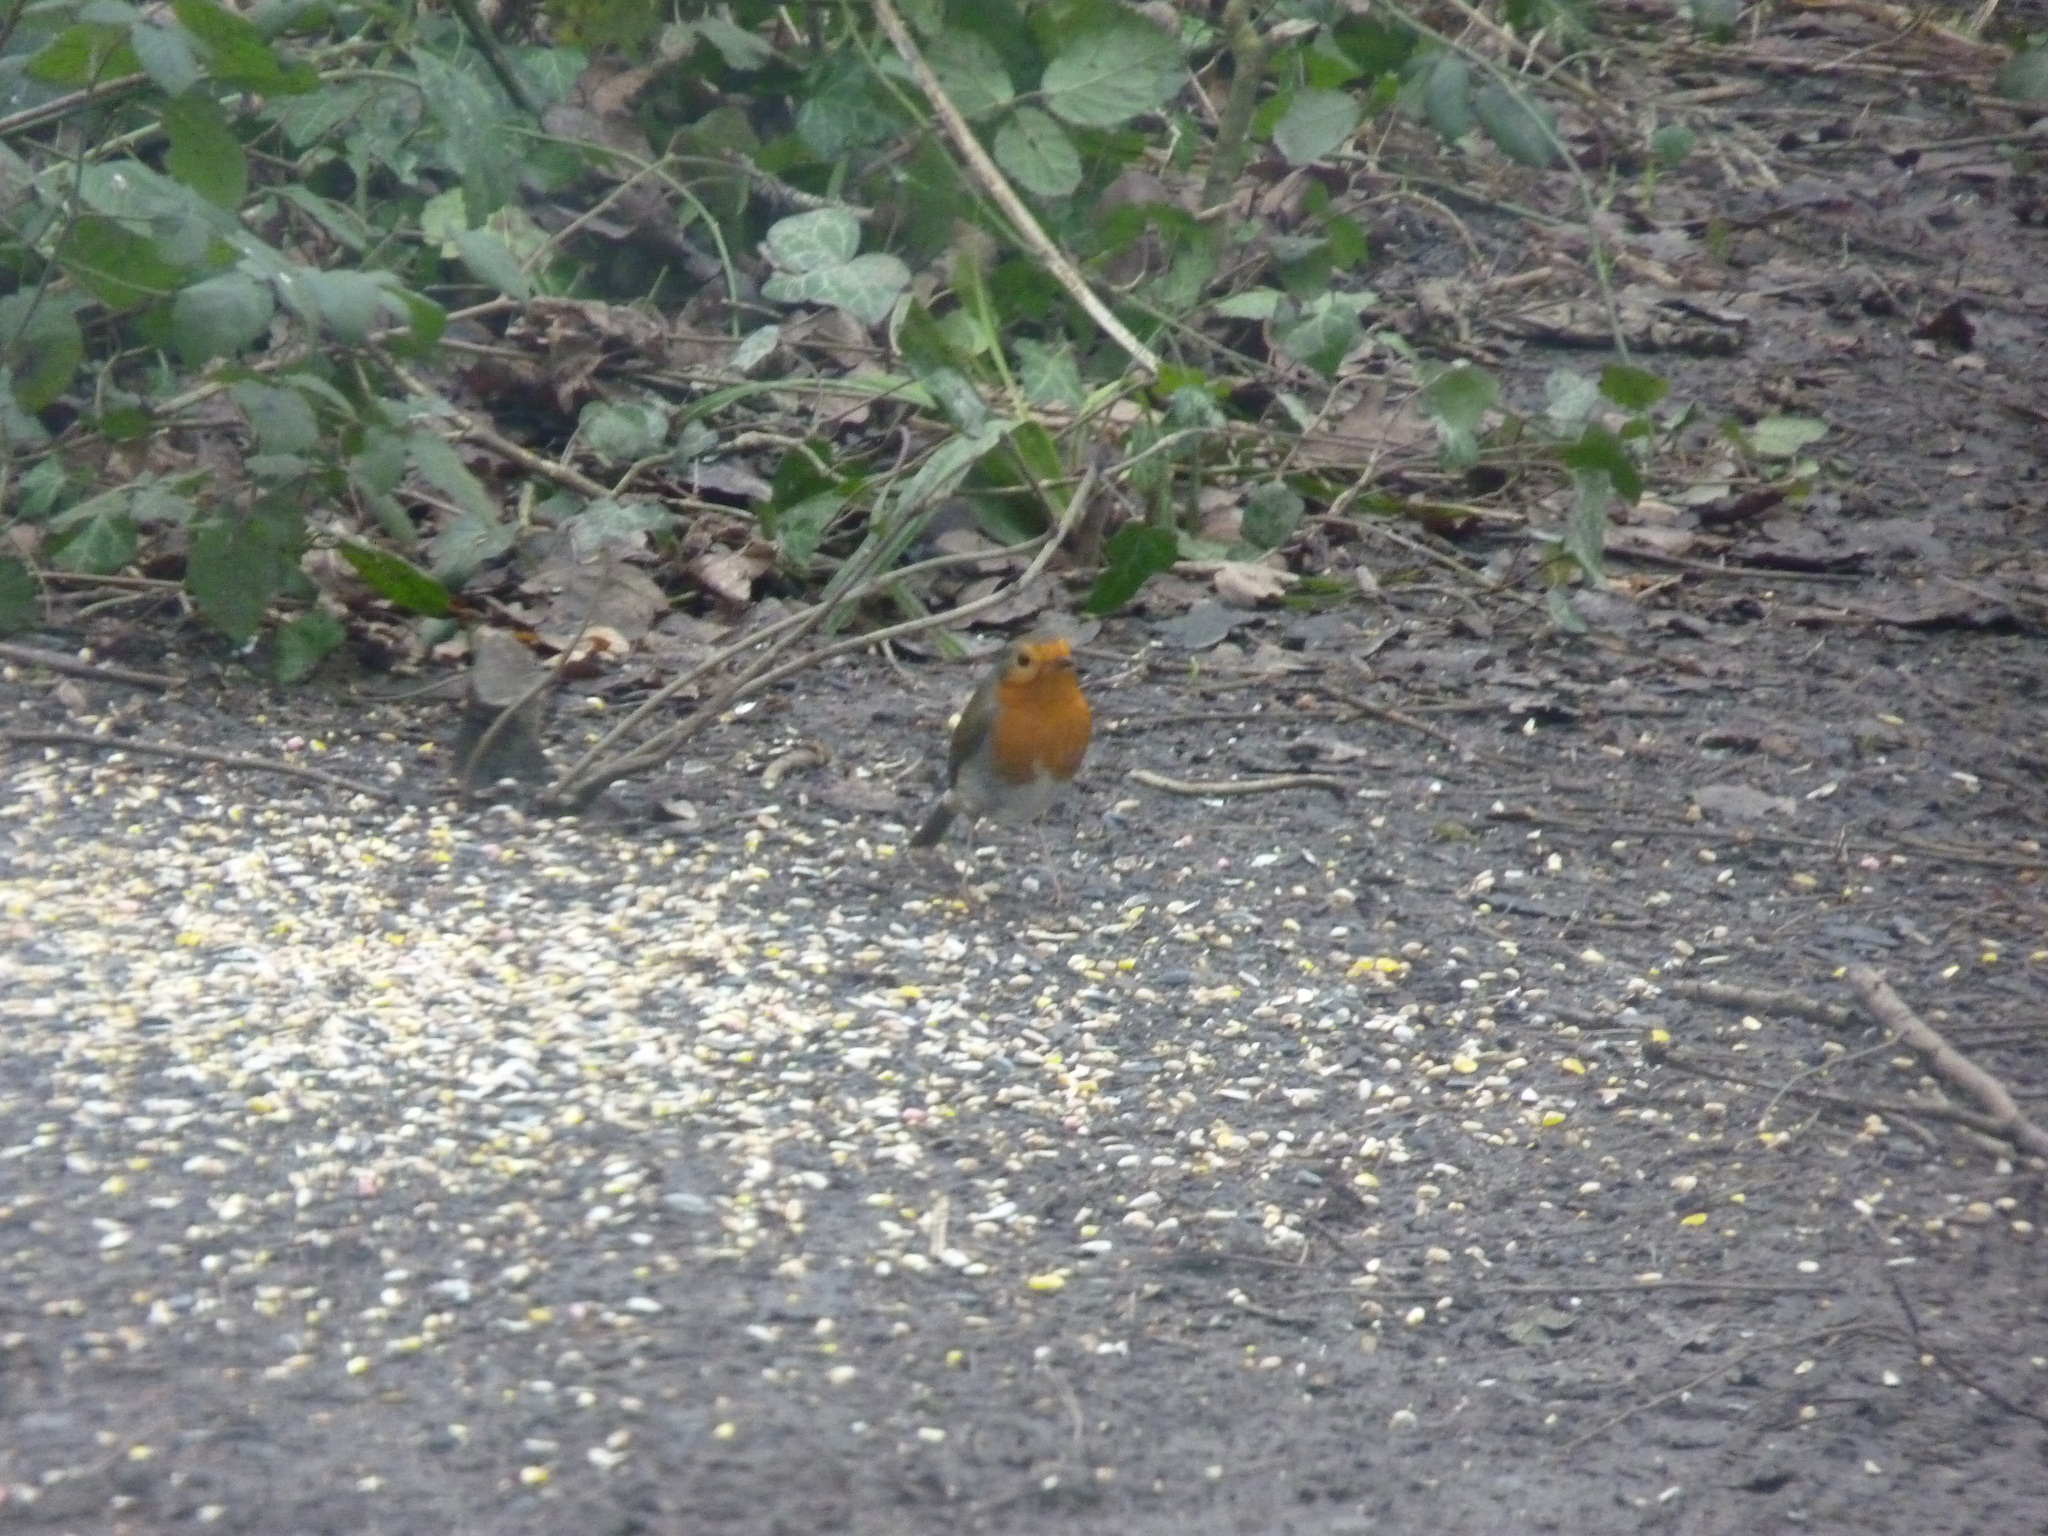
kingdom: Animalia
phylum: Chordata
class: Aves
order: Passeriformes
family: Muscicapidae
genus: Erithacus
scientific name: Erithacus rubecula
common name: European robin
